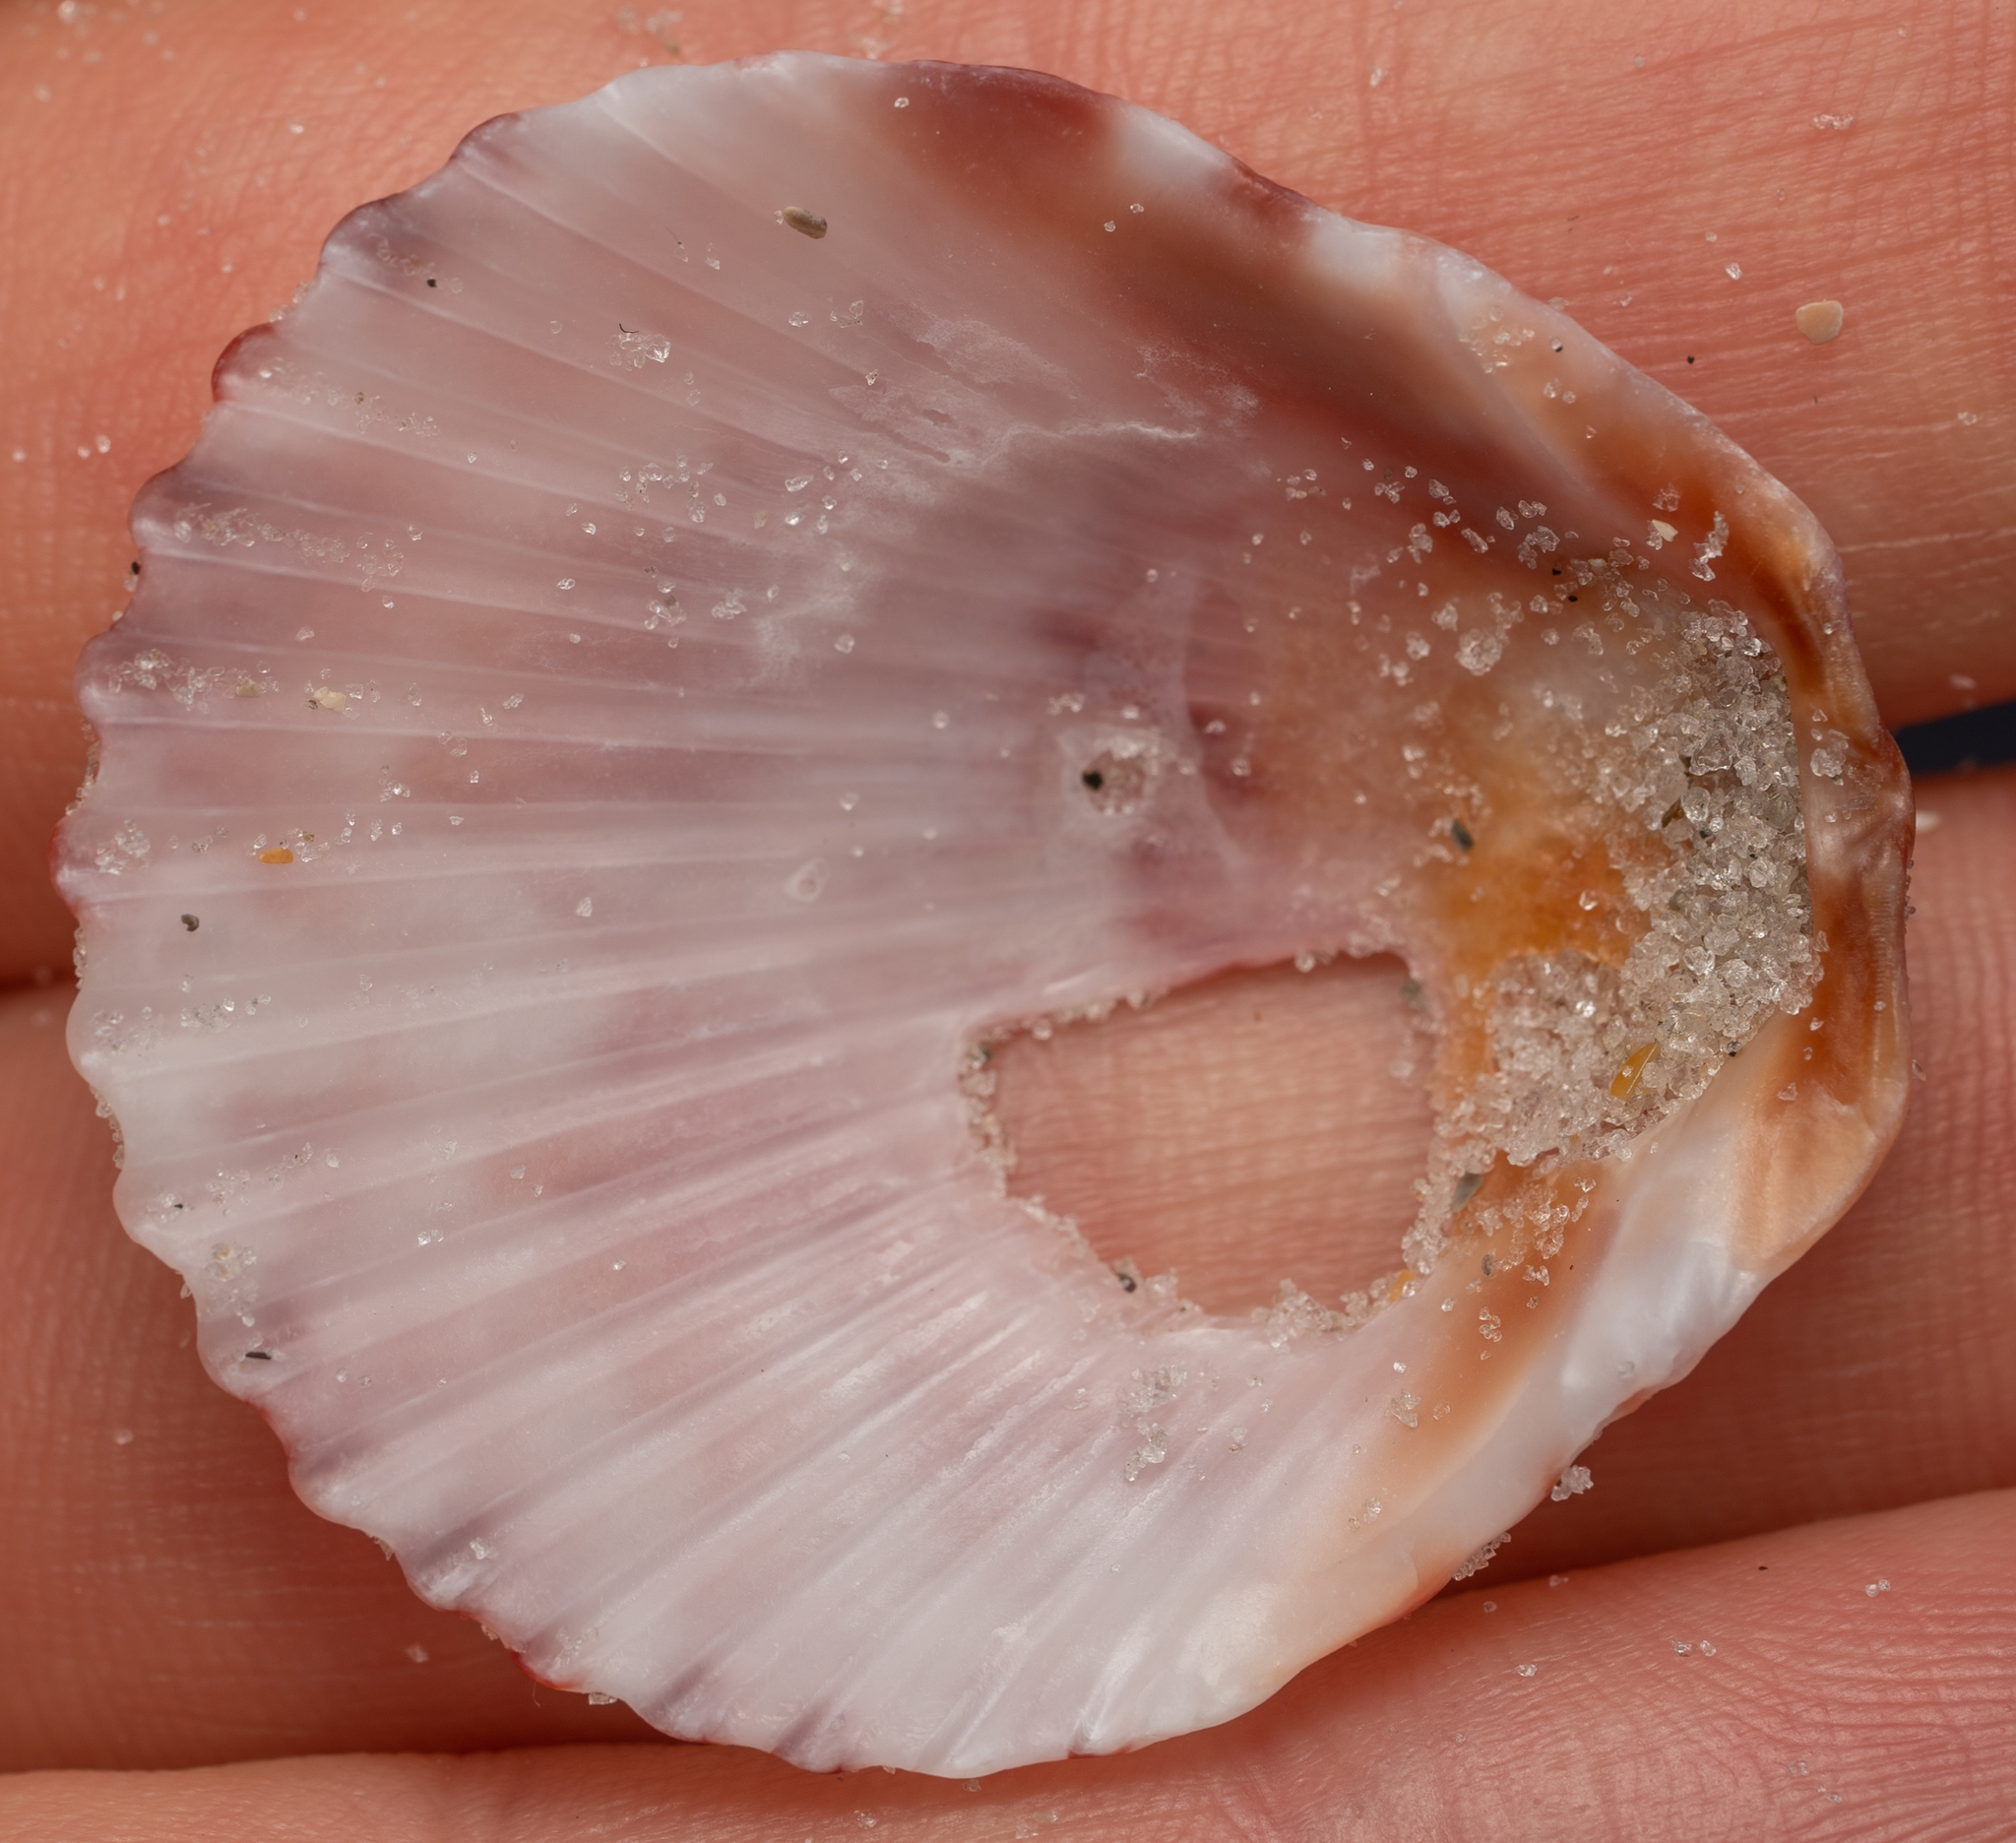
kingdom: Animalia
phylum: Mollusca
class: Bivalvia
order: Pectinida
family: Pectinidae
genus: Argopecten
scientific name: Argopecten gibbus
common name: Atlantic calico scallop
